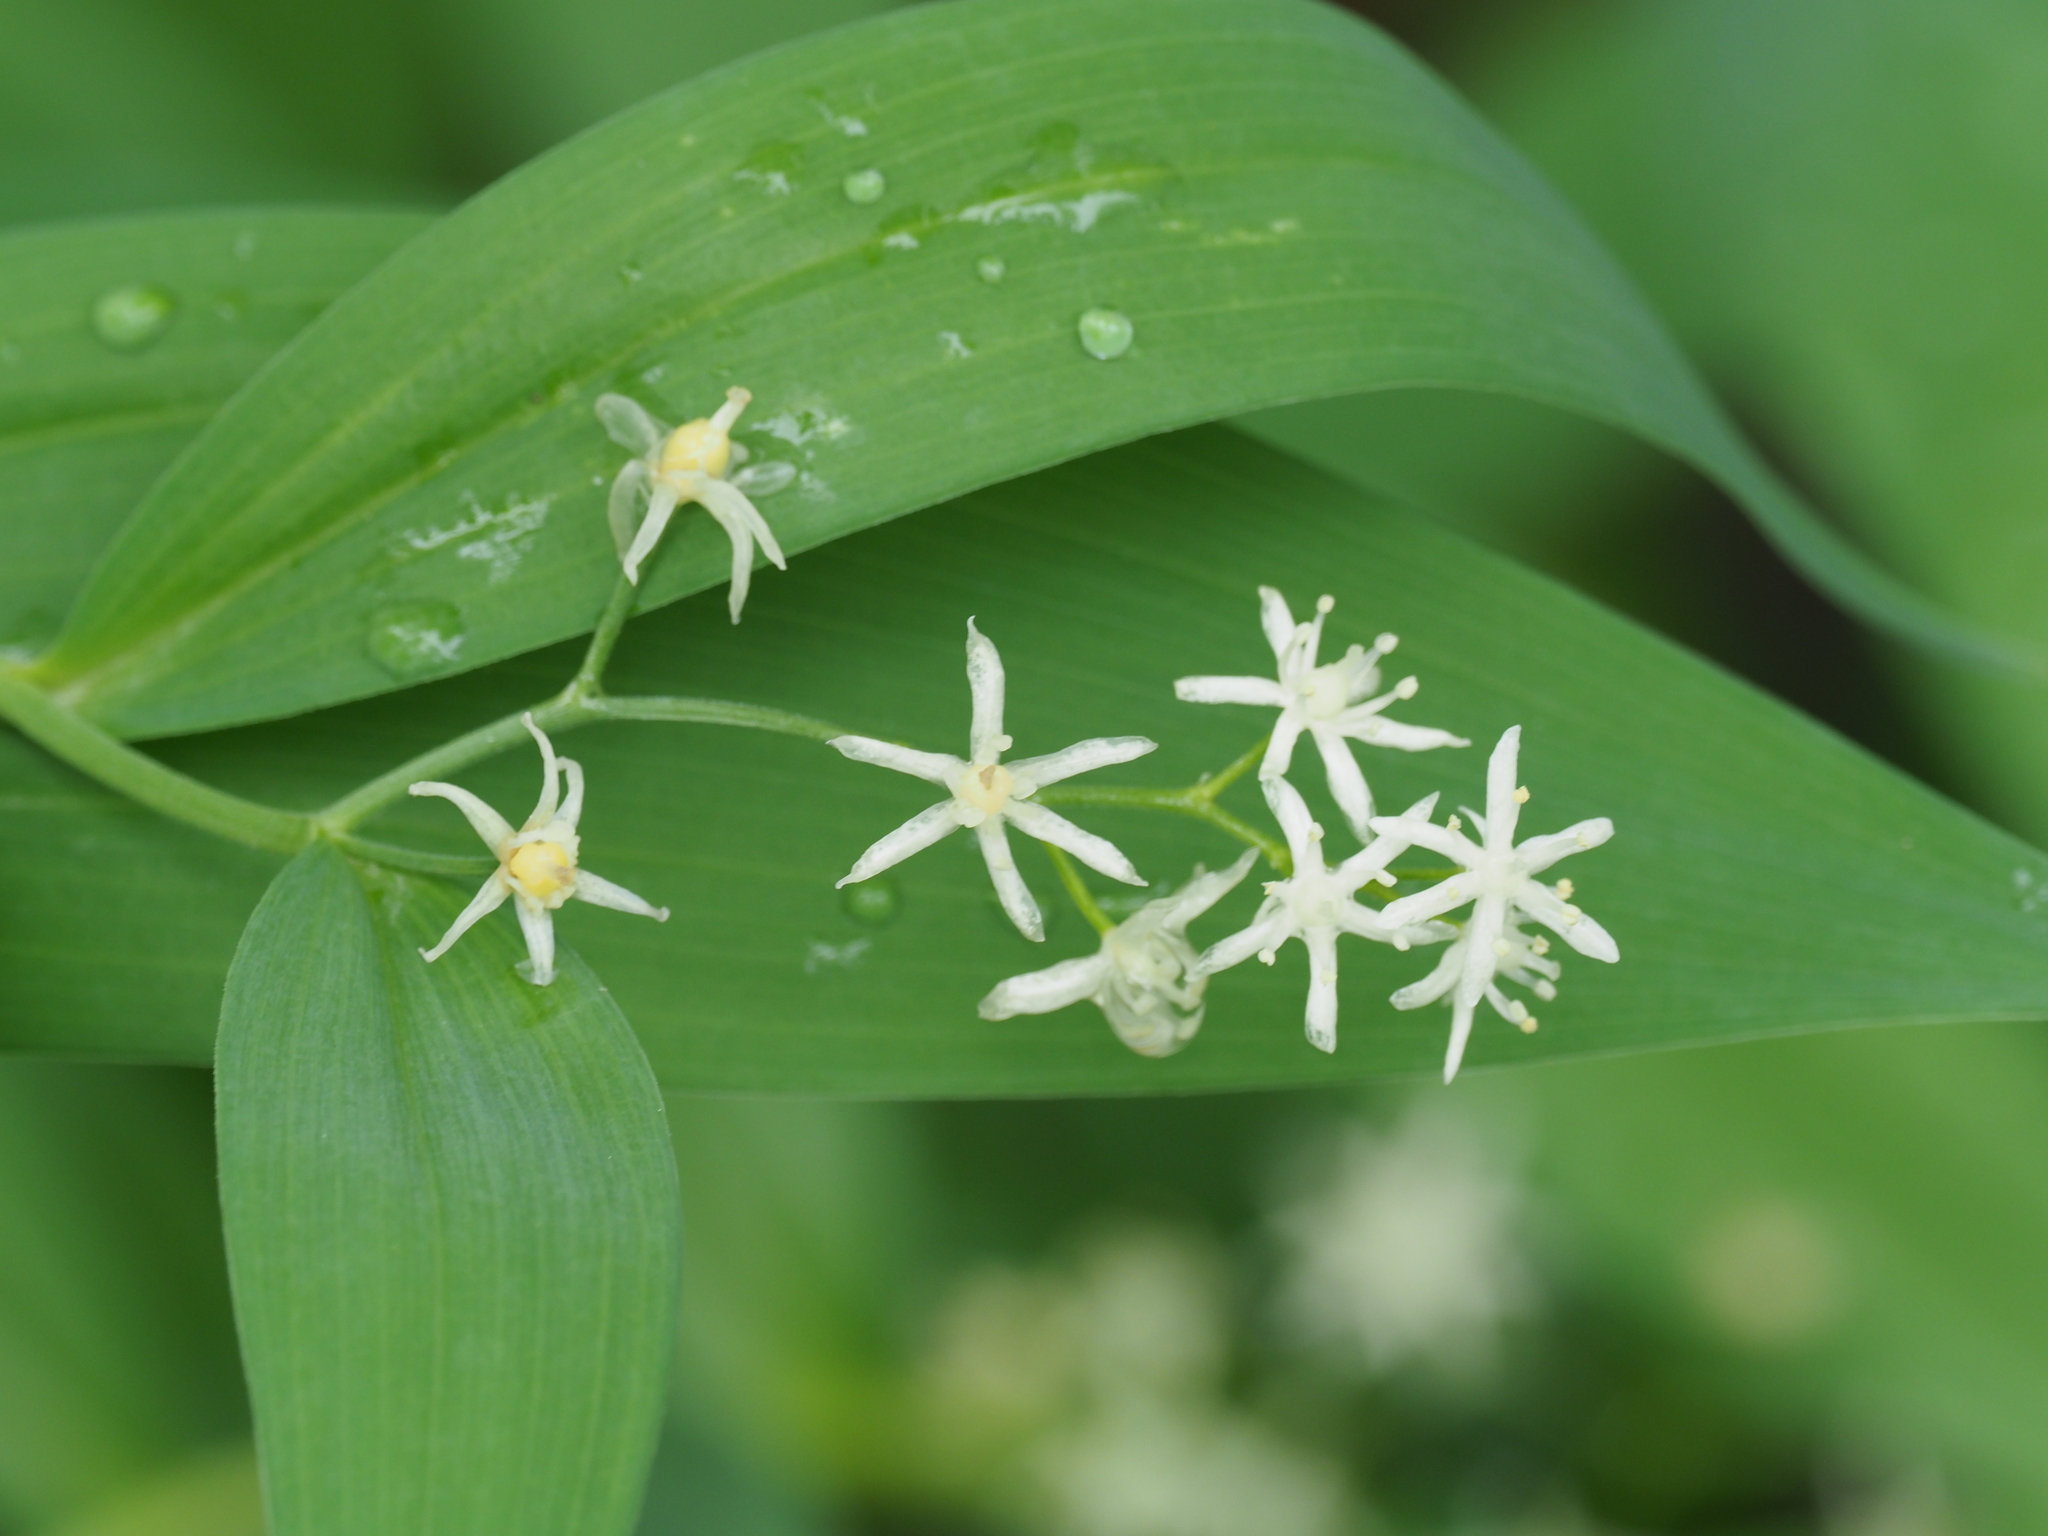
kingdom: Plantae
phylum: Tracheophyta
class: Liliopsida
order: Asparagales
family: Asparagaceae
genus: Maianthemum
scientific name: Maianthemum stellatum
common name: Little false solomon's seal
